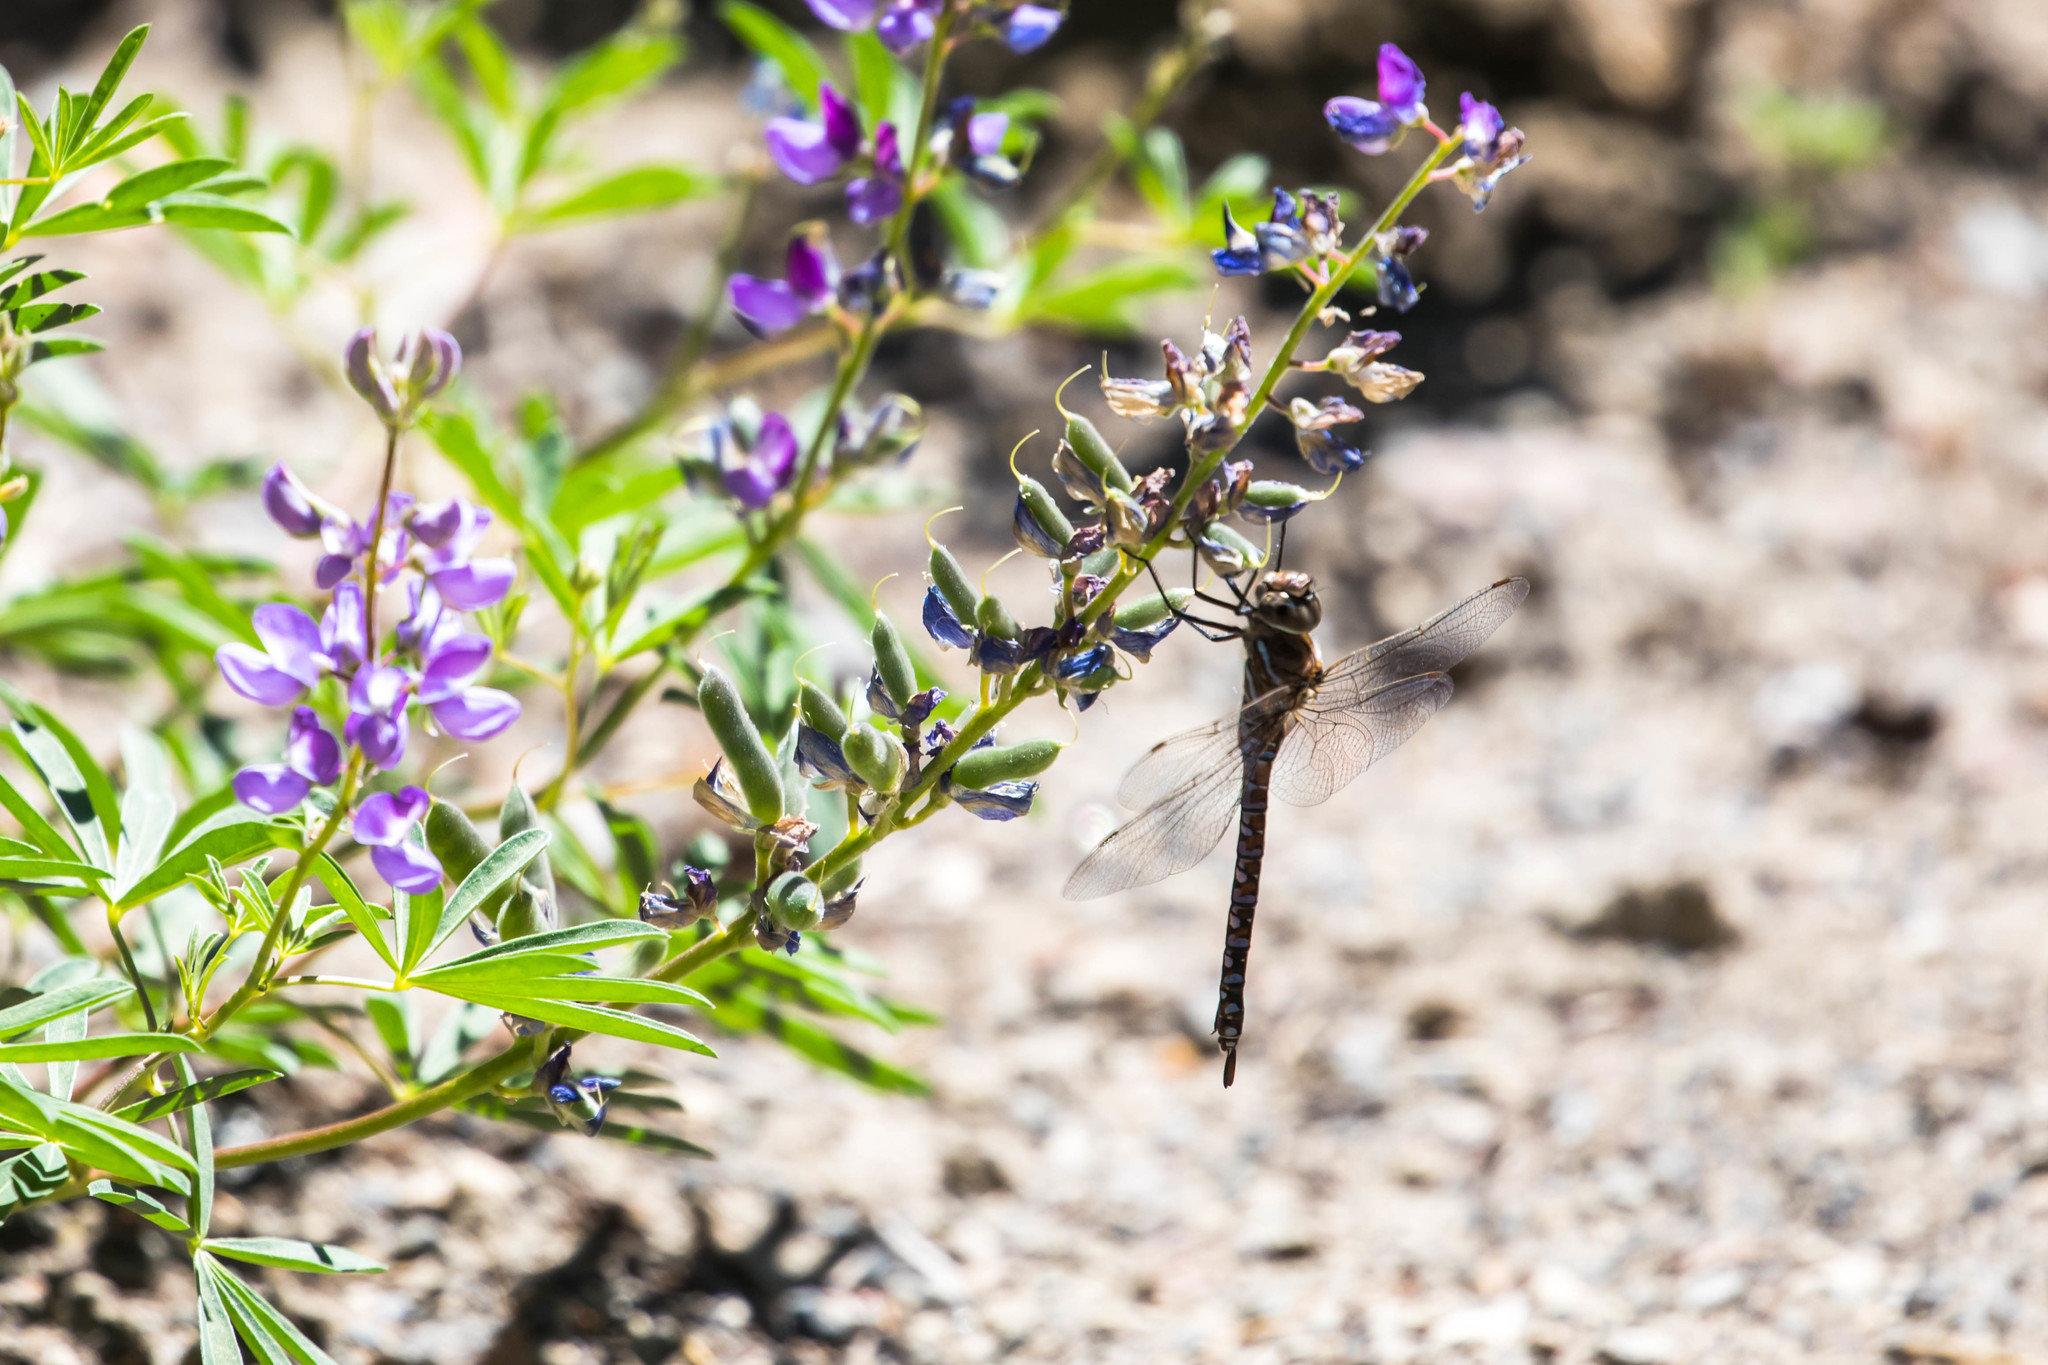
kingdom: Animalia
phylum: Arthropoda
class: Insecta
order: Odonata
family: Aeshnidae
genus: Aeshna
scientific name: Aeshna interrupta
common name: Variable darner
